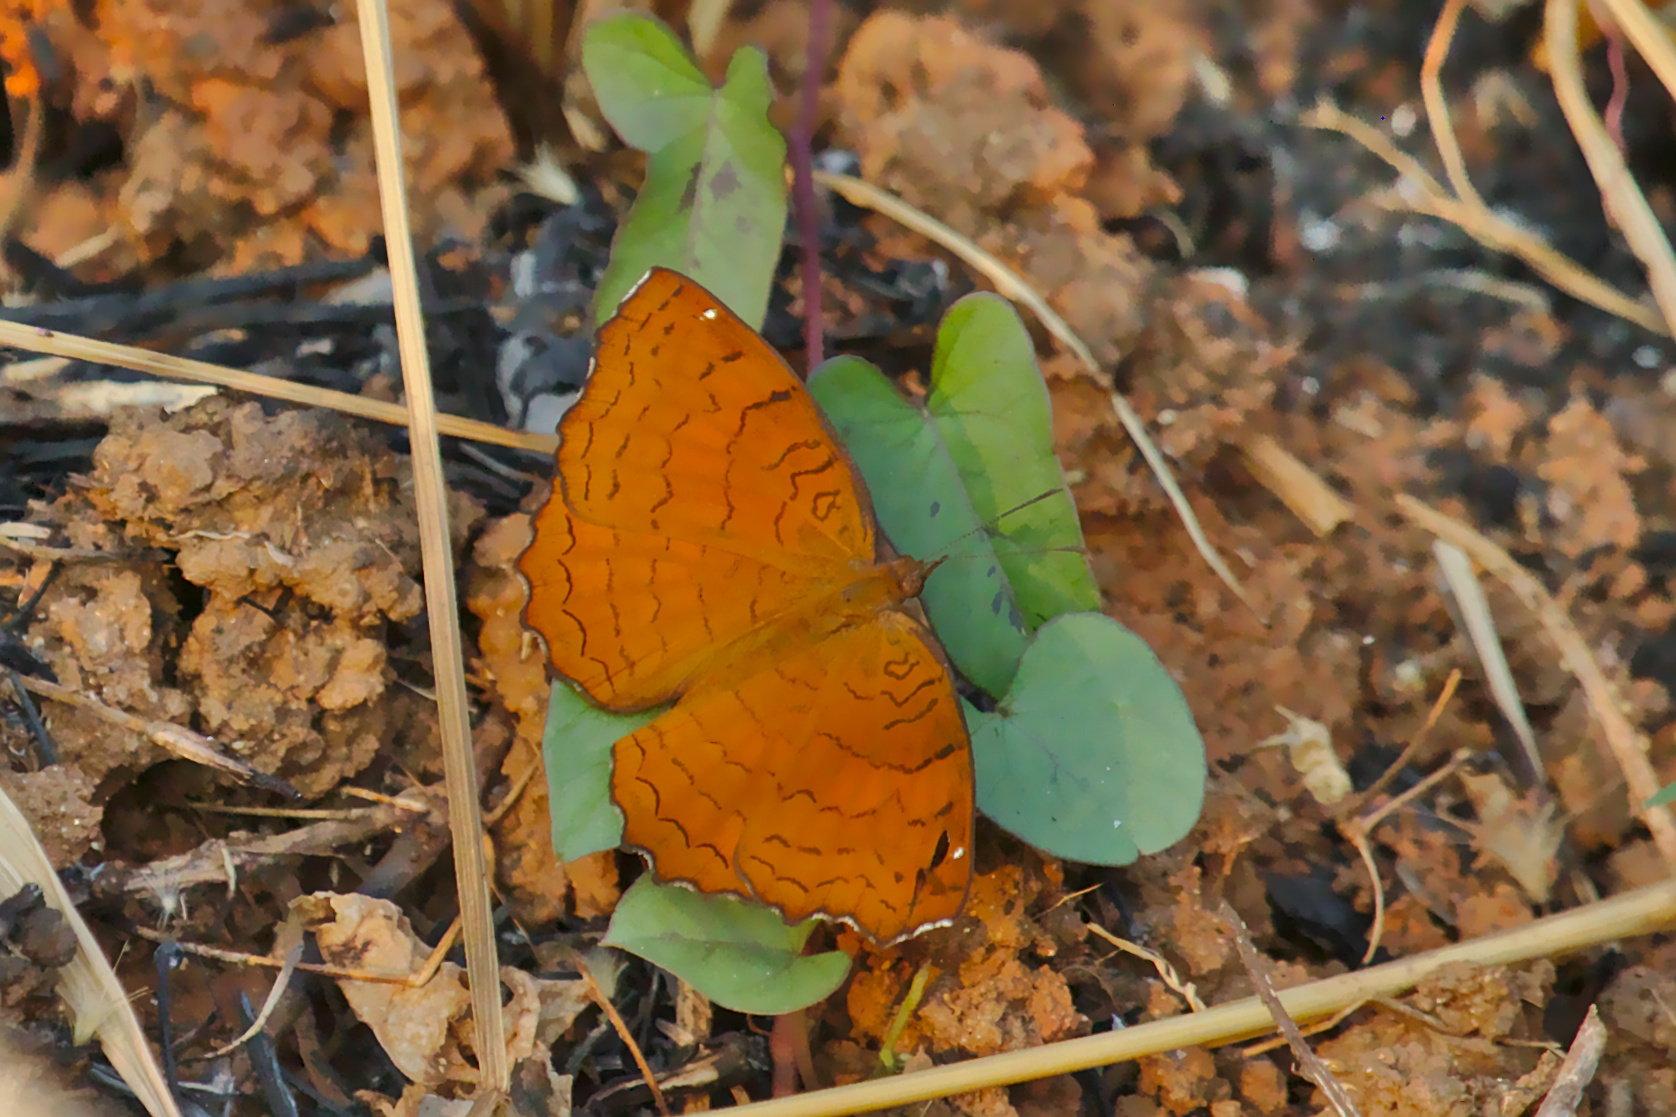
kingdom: Animalia
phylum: Arthropoda
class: Insecta
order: Lepidoptera
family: Nymphalidae
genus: Ariadne
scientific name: Ariadne ariadne
